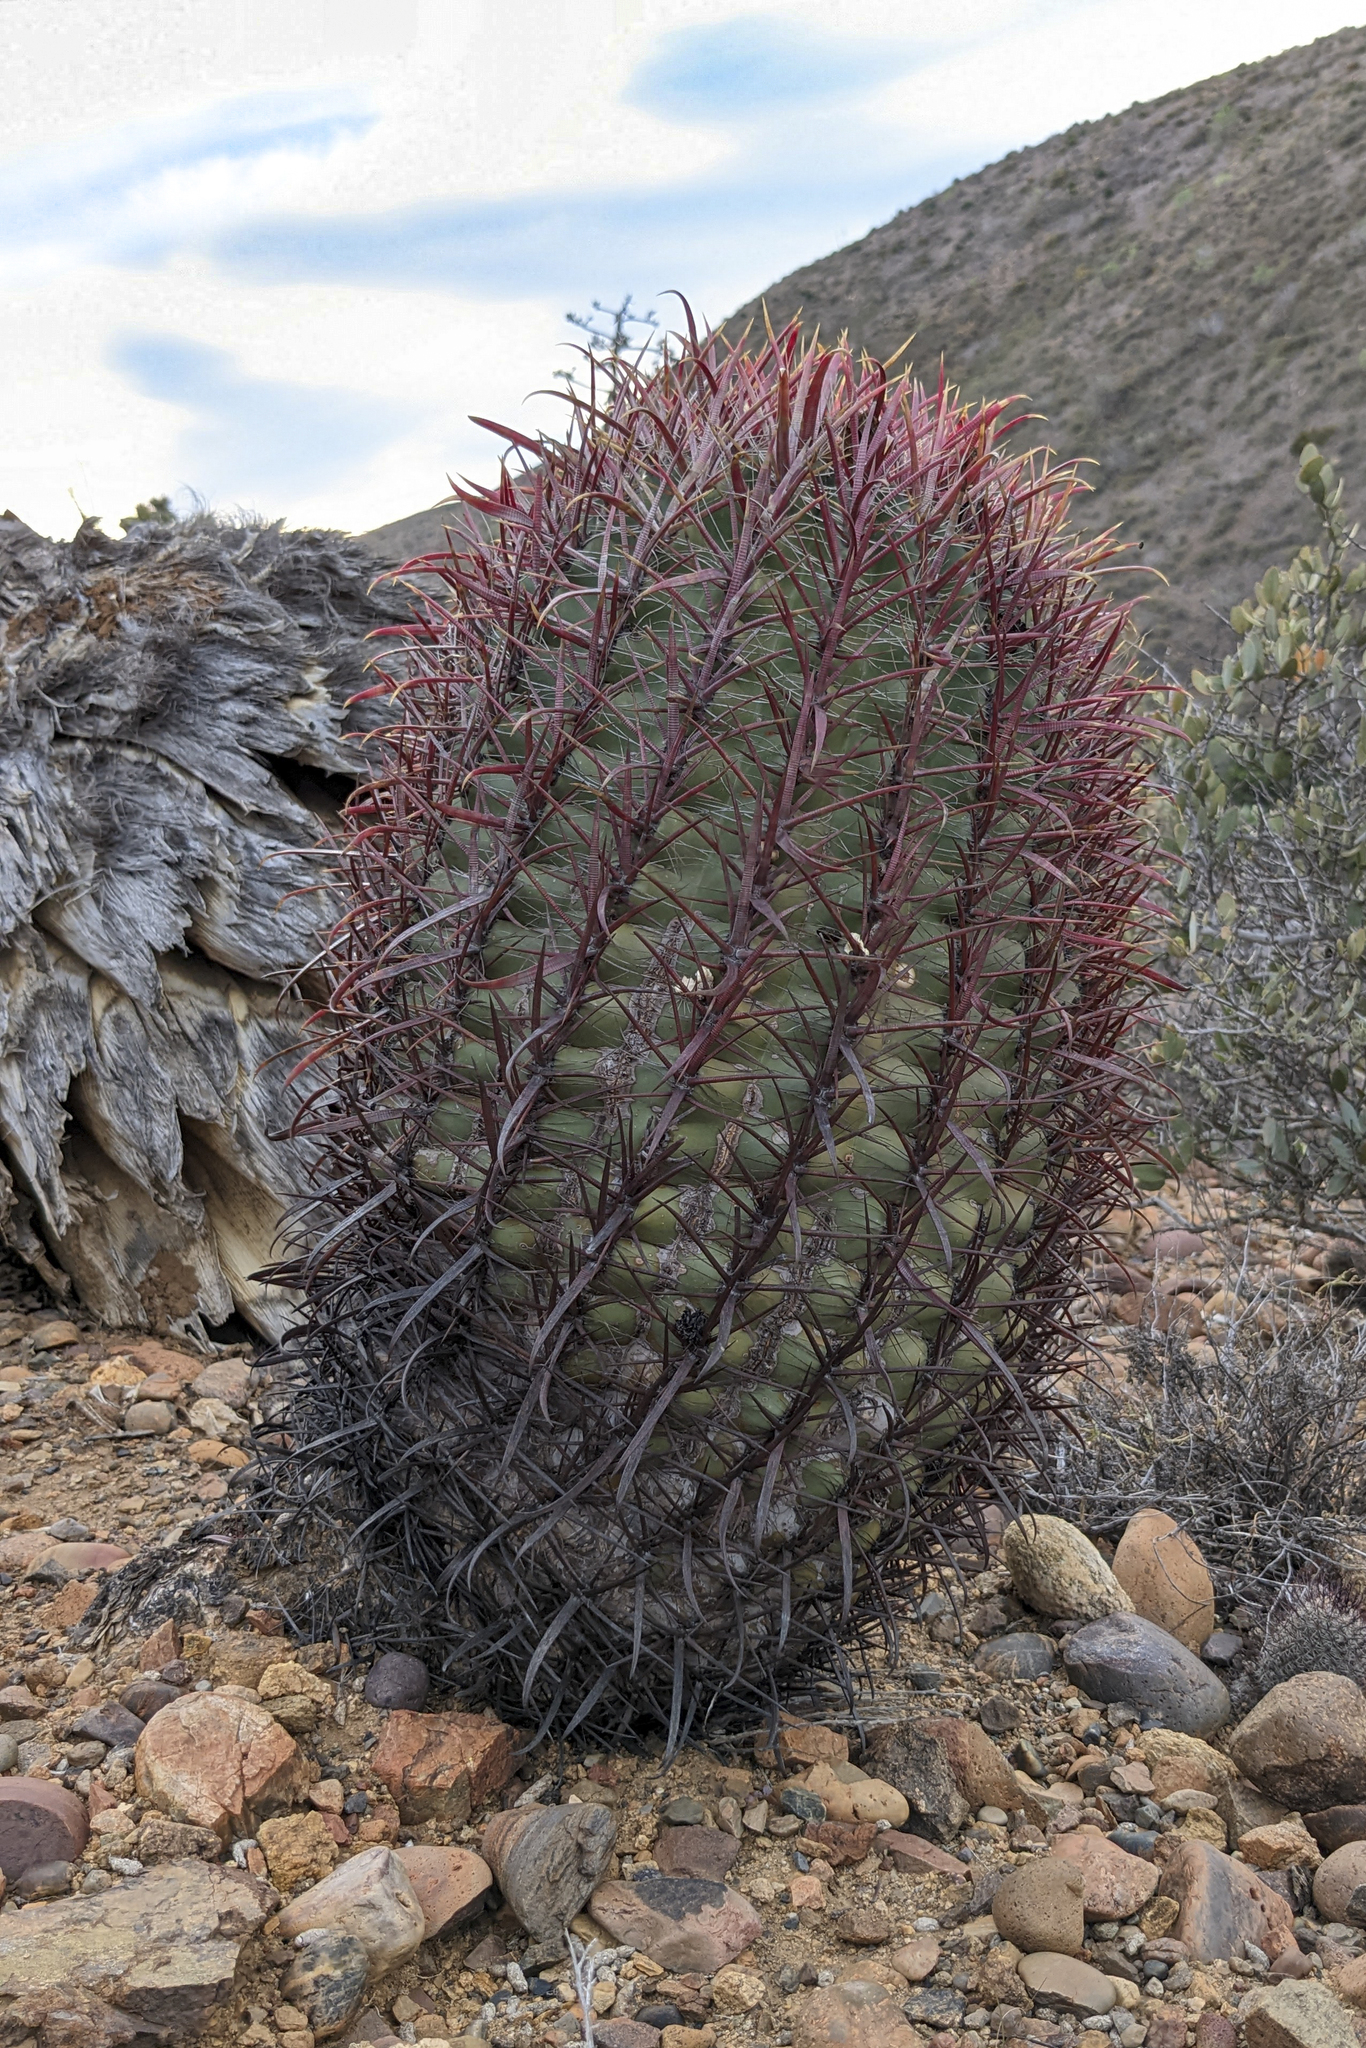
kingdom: Plantae
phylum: Tracheophyta
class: Magnoliopsida
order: Caryophyllales
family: Cactaceae
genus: Ferocactus
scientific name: Ferocactus gracilis
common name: Fire barrel cactus
